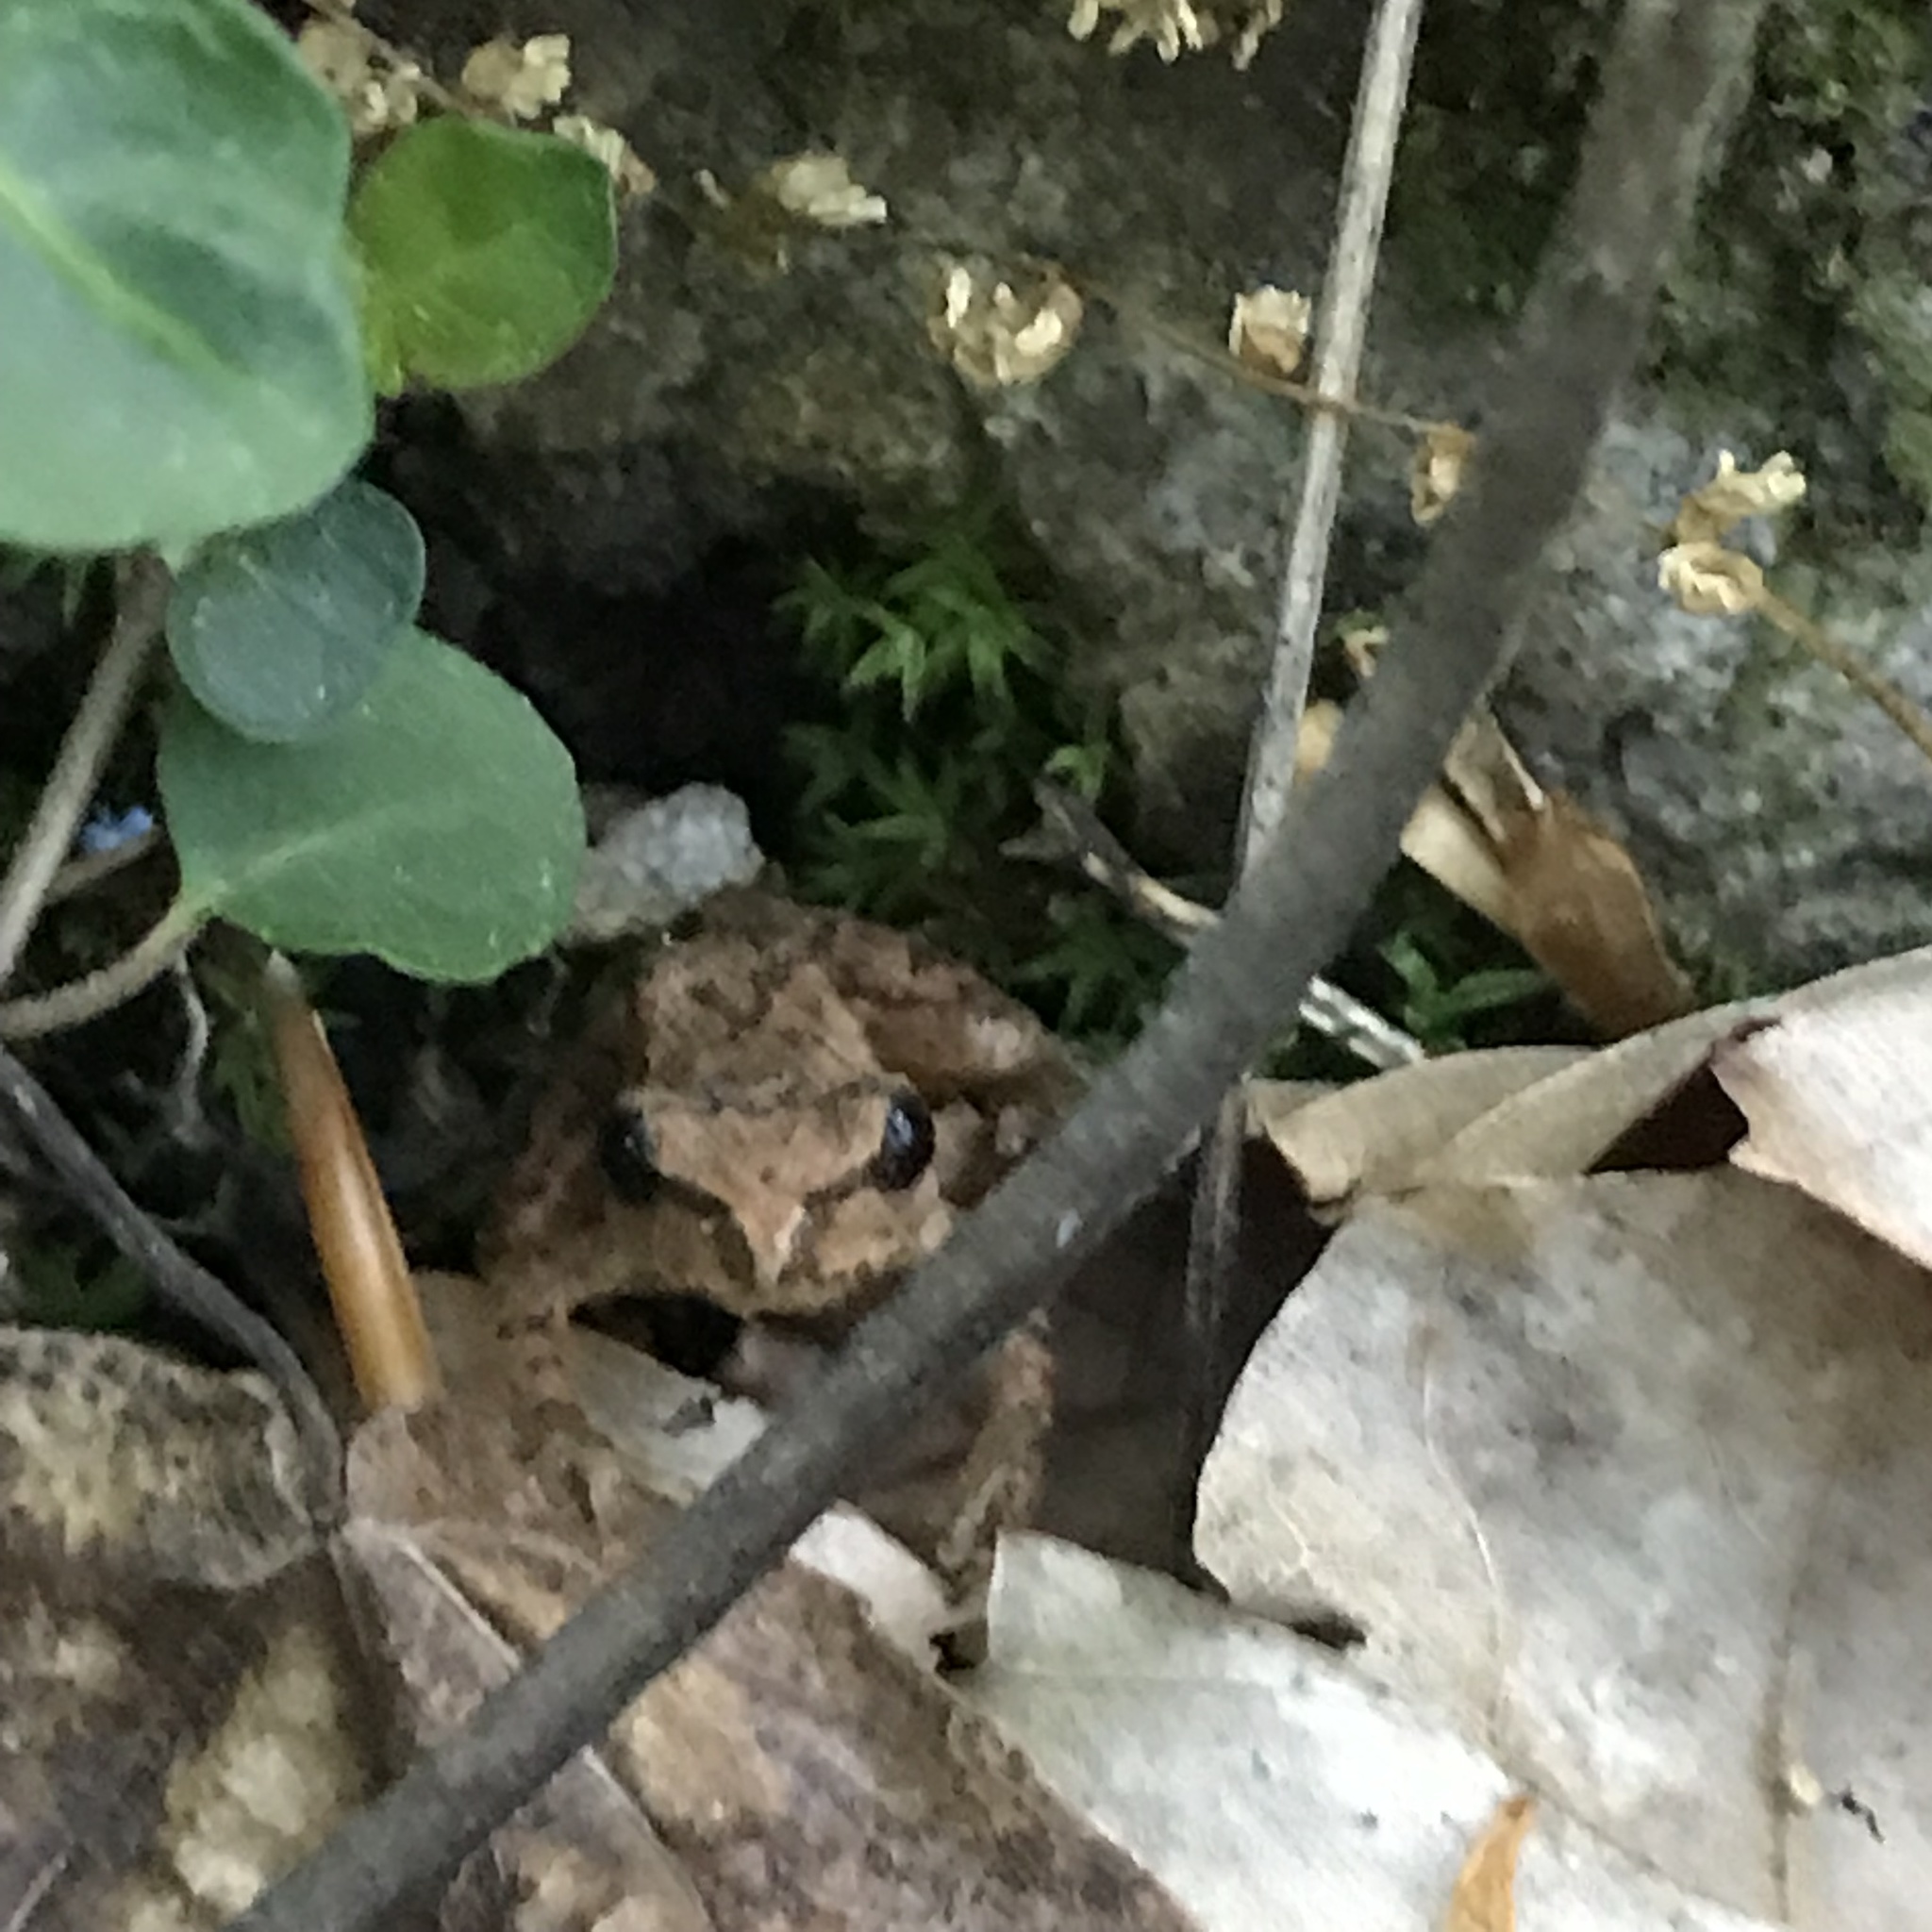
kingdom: Animalia
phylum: Chordata
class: Amphibia
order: Anura
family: Hylidae
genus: Pseudacris
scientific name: Pseudacris crucifer
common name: Spring peeper
